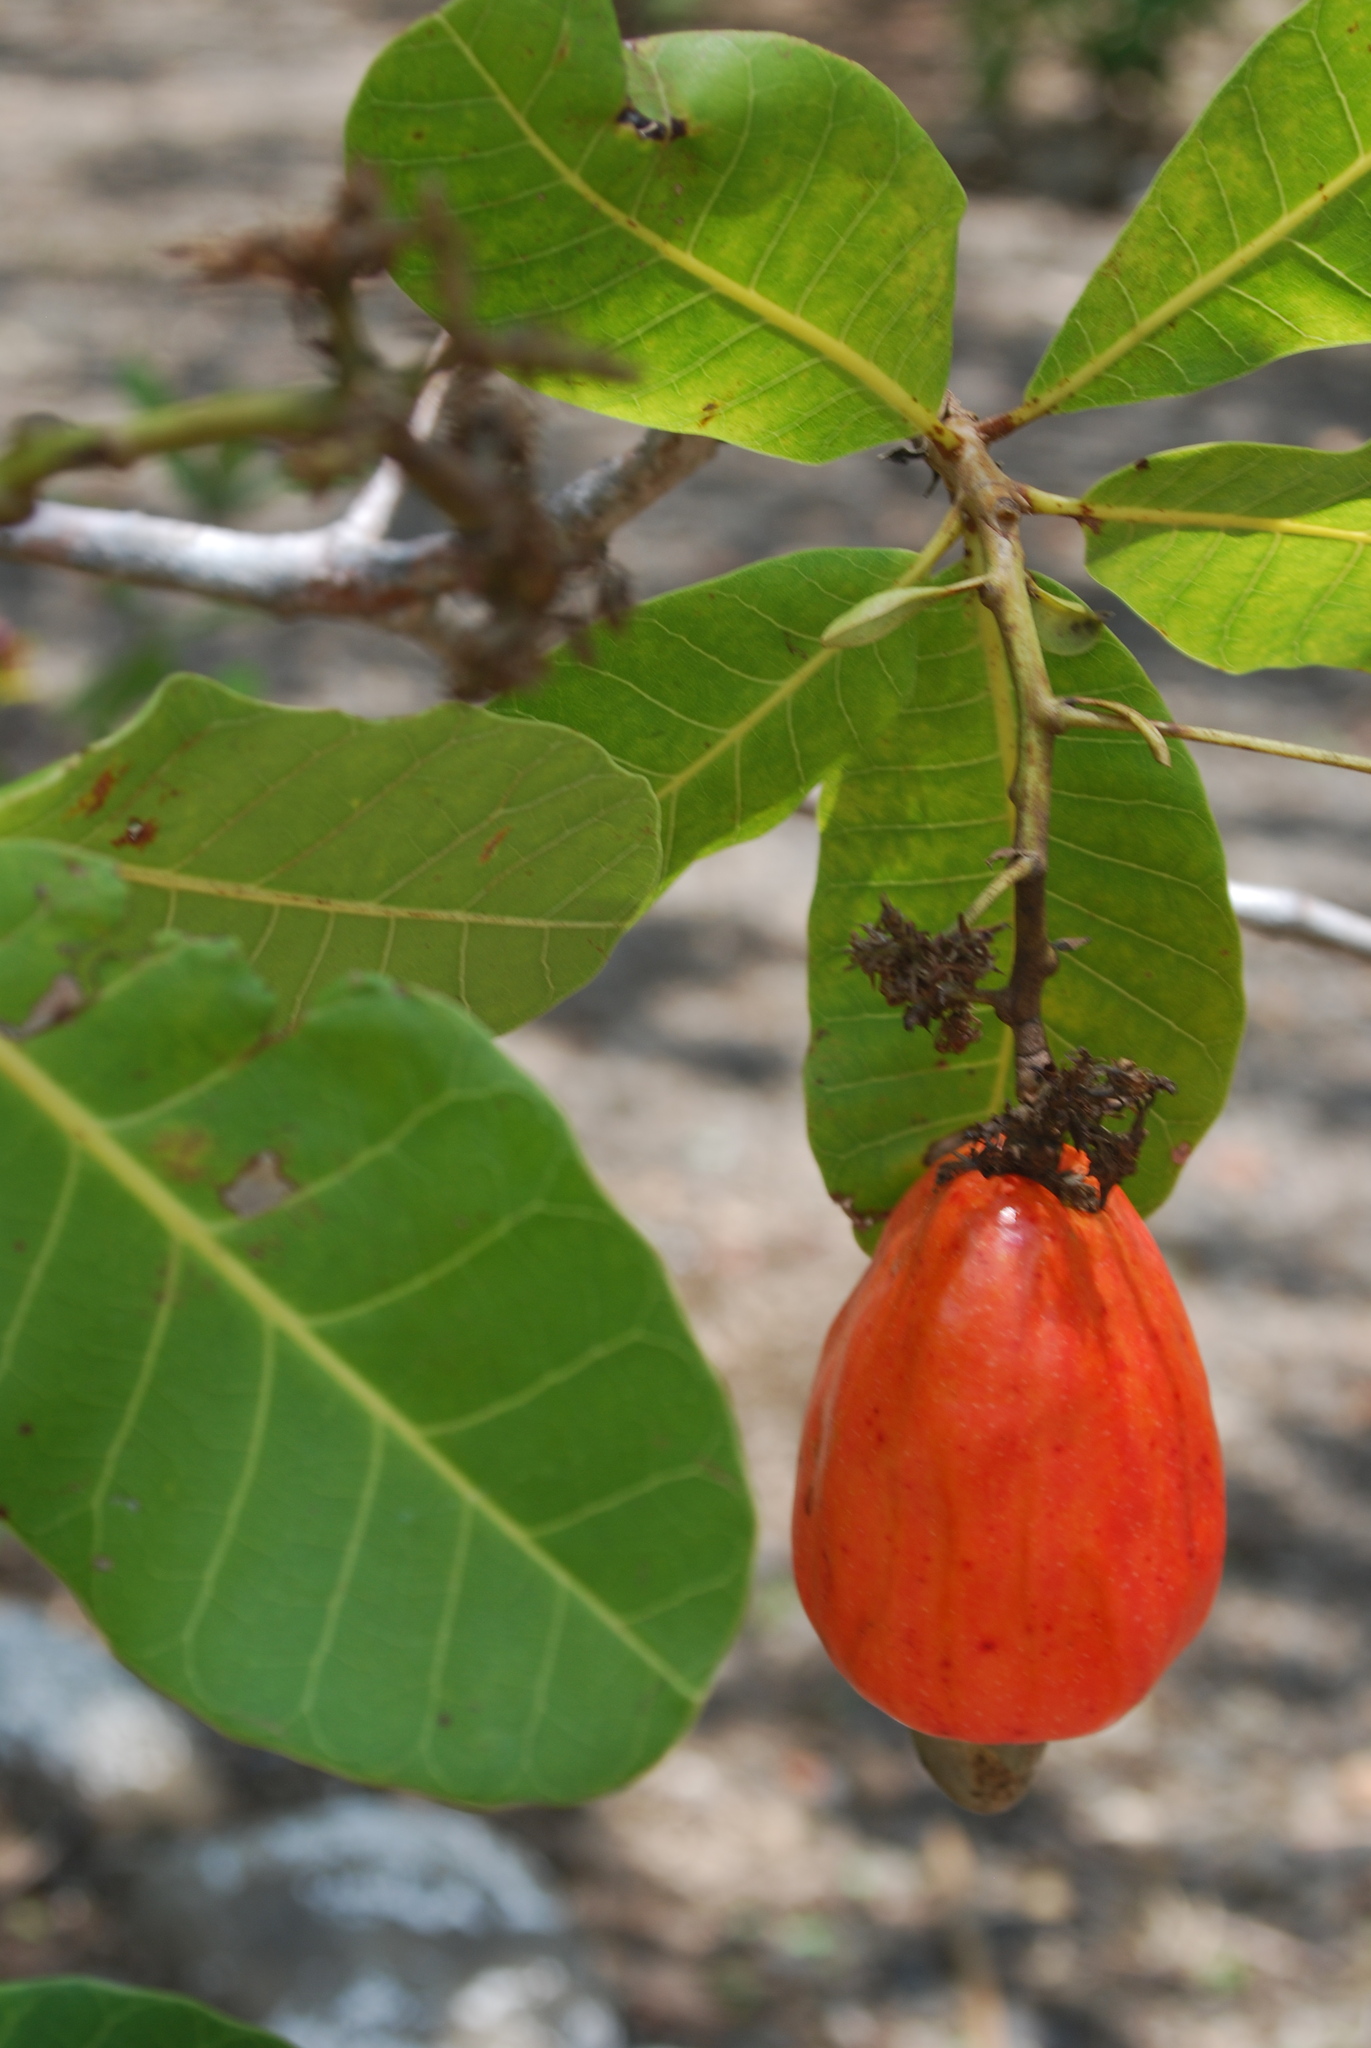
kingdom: Plantae
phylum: Tracheophyta
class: Magnoliopsida
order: Sapindales
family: Anacardiaceae
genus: Anacardium
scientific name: Anacardium occidentale
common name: Cashew
